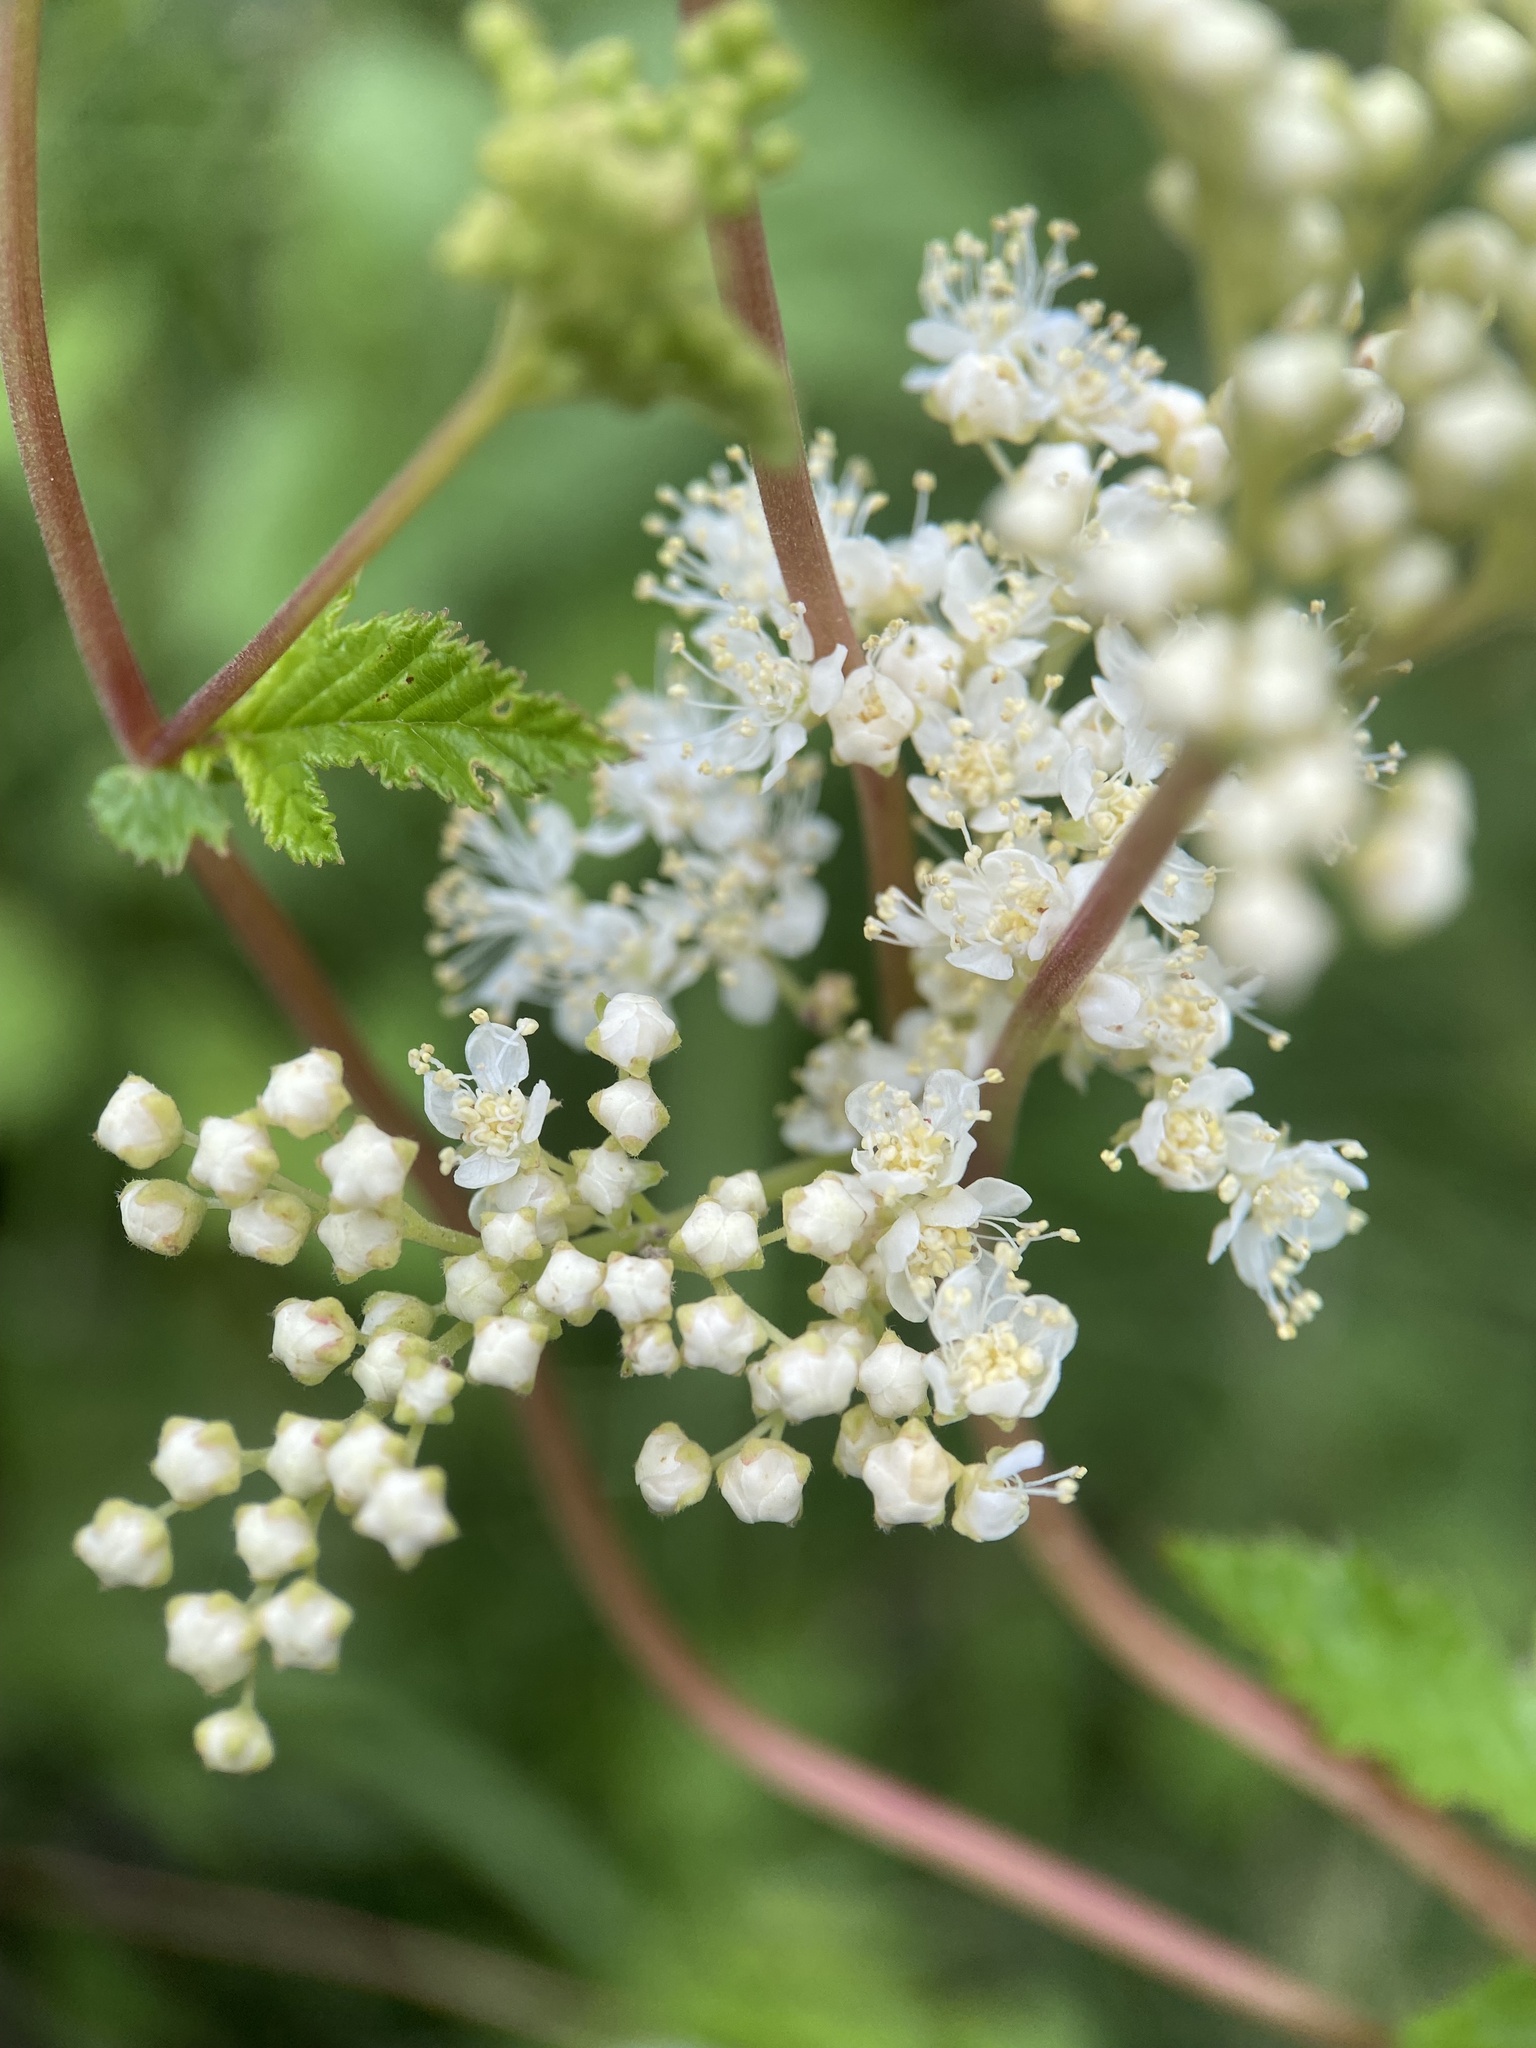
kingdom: Plantae
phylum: Tracheophyta
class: Magnoliopsida
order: Rosales
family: Rosaceae
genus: Filipendula
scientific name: Filipendula ulmaria
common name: Meadowsweet
